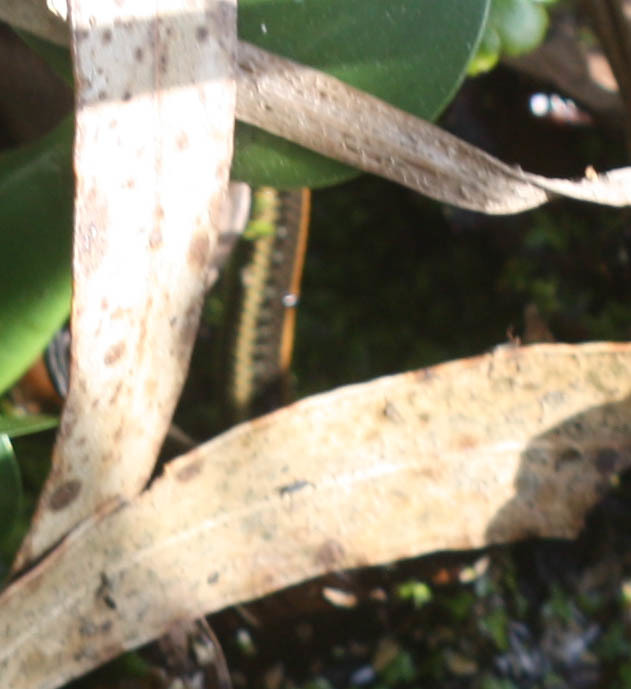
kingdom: Animalia
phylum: Chordata
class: Squamata
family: Colubridae
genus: Thamnophis
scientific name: Thamnophis atratus
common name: Pacific coast aquatic garter snake
